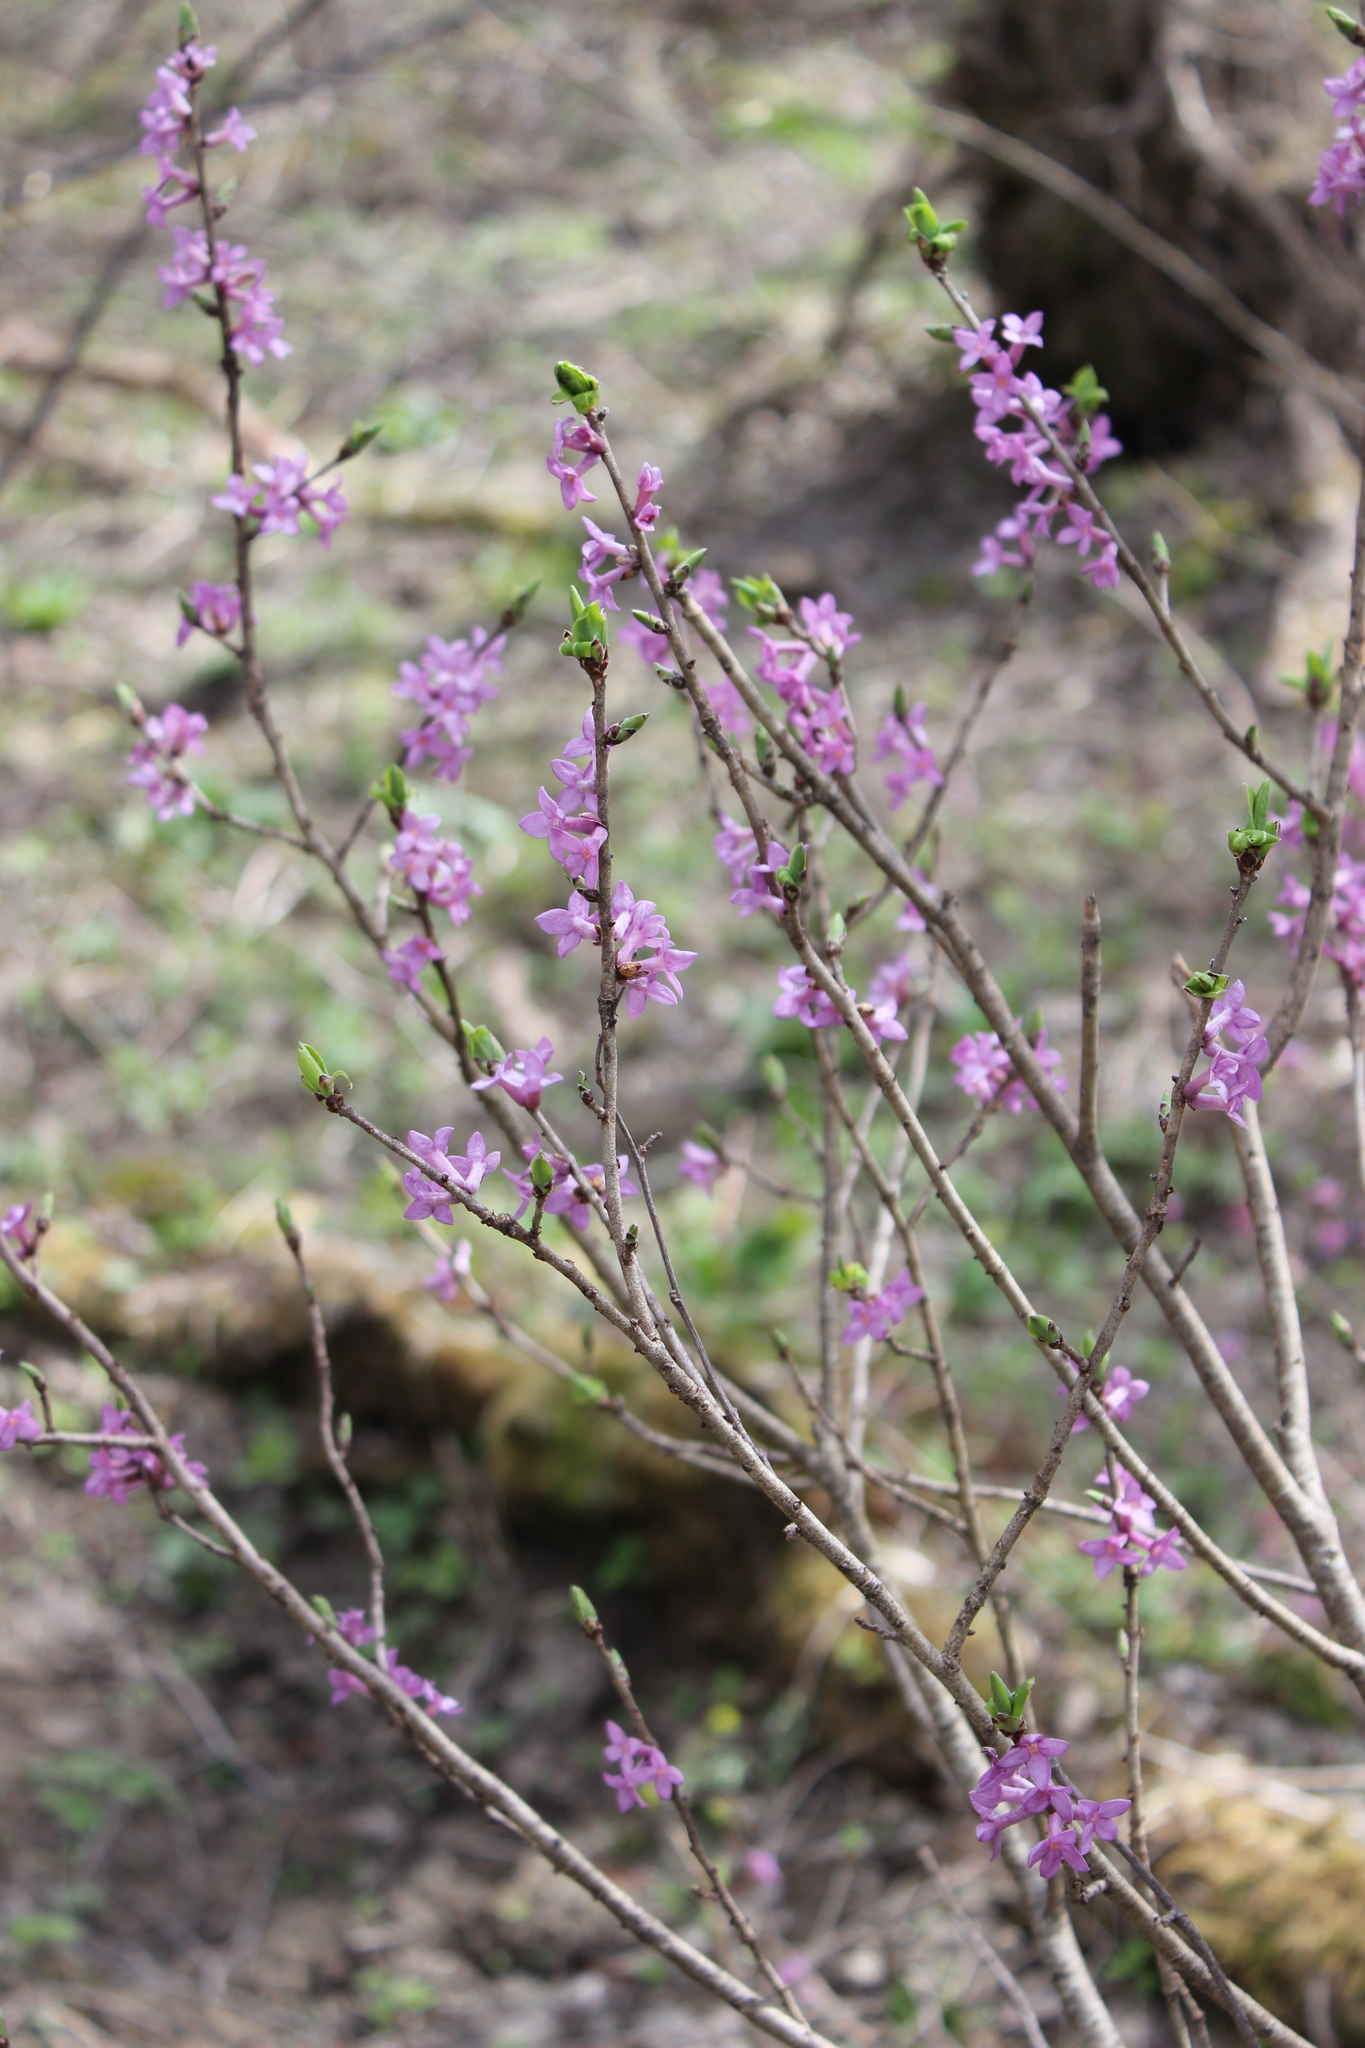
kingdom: Plantae
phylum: Tracheophyta
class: Magnoliopsida
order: Malvales
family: Thymelaeaceae
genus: Daphne
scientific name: Daphne mezereum
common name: Mezereon
